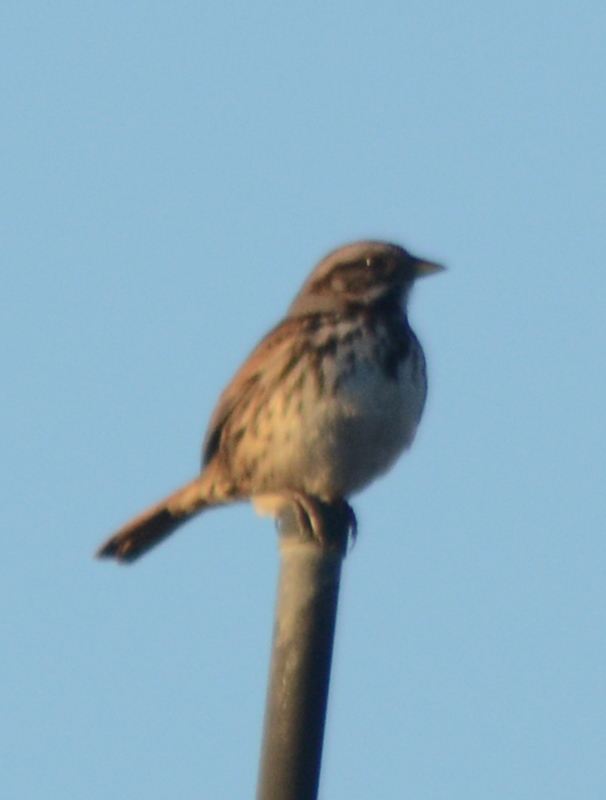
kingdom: Animalia
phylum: Chordata
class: Aves
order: Passeriformes
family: Passerellidae
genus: Melospiza
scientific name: Melospiza melodia
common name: Song sparrow
